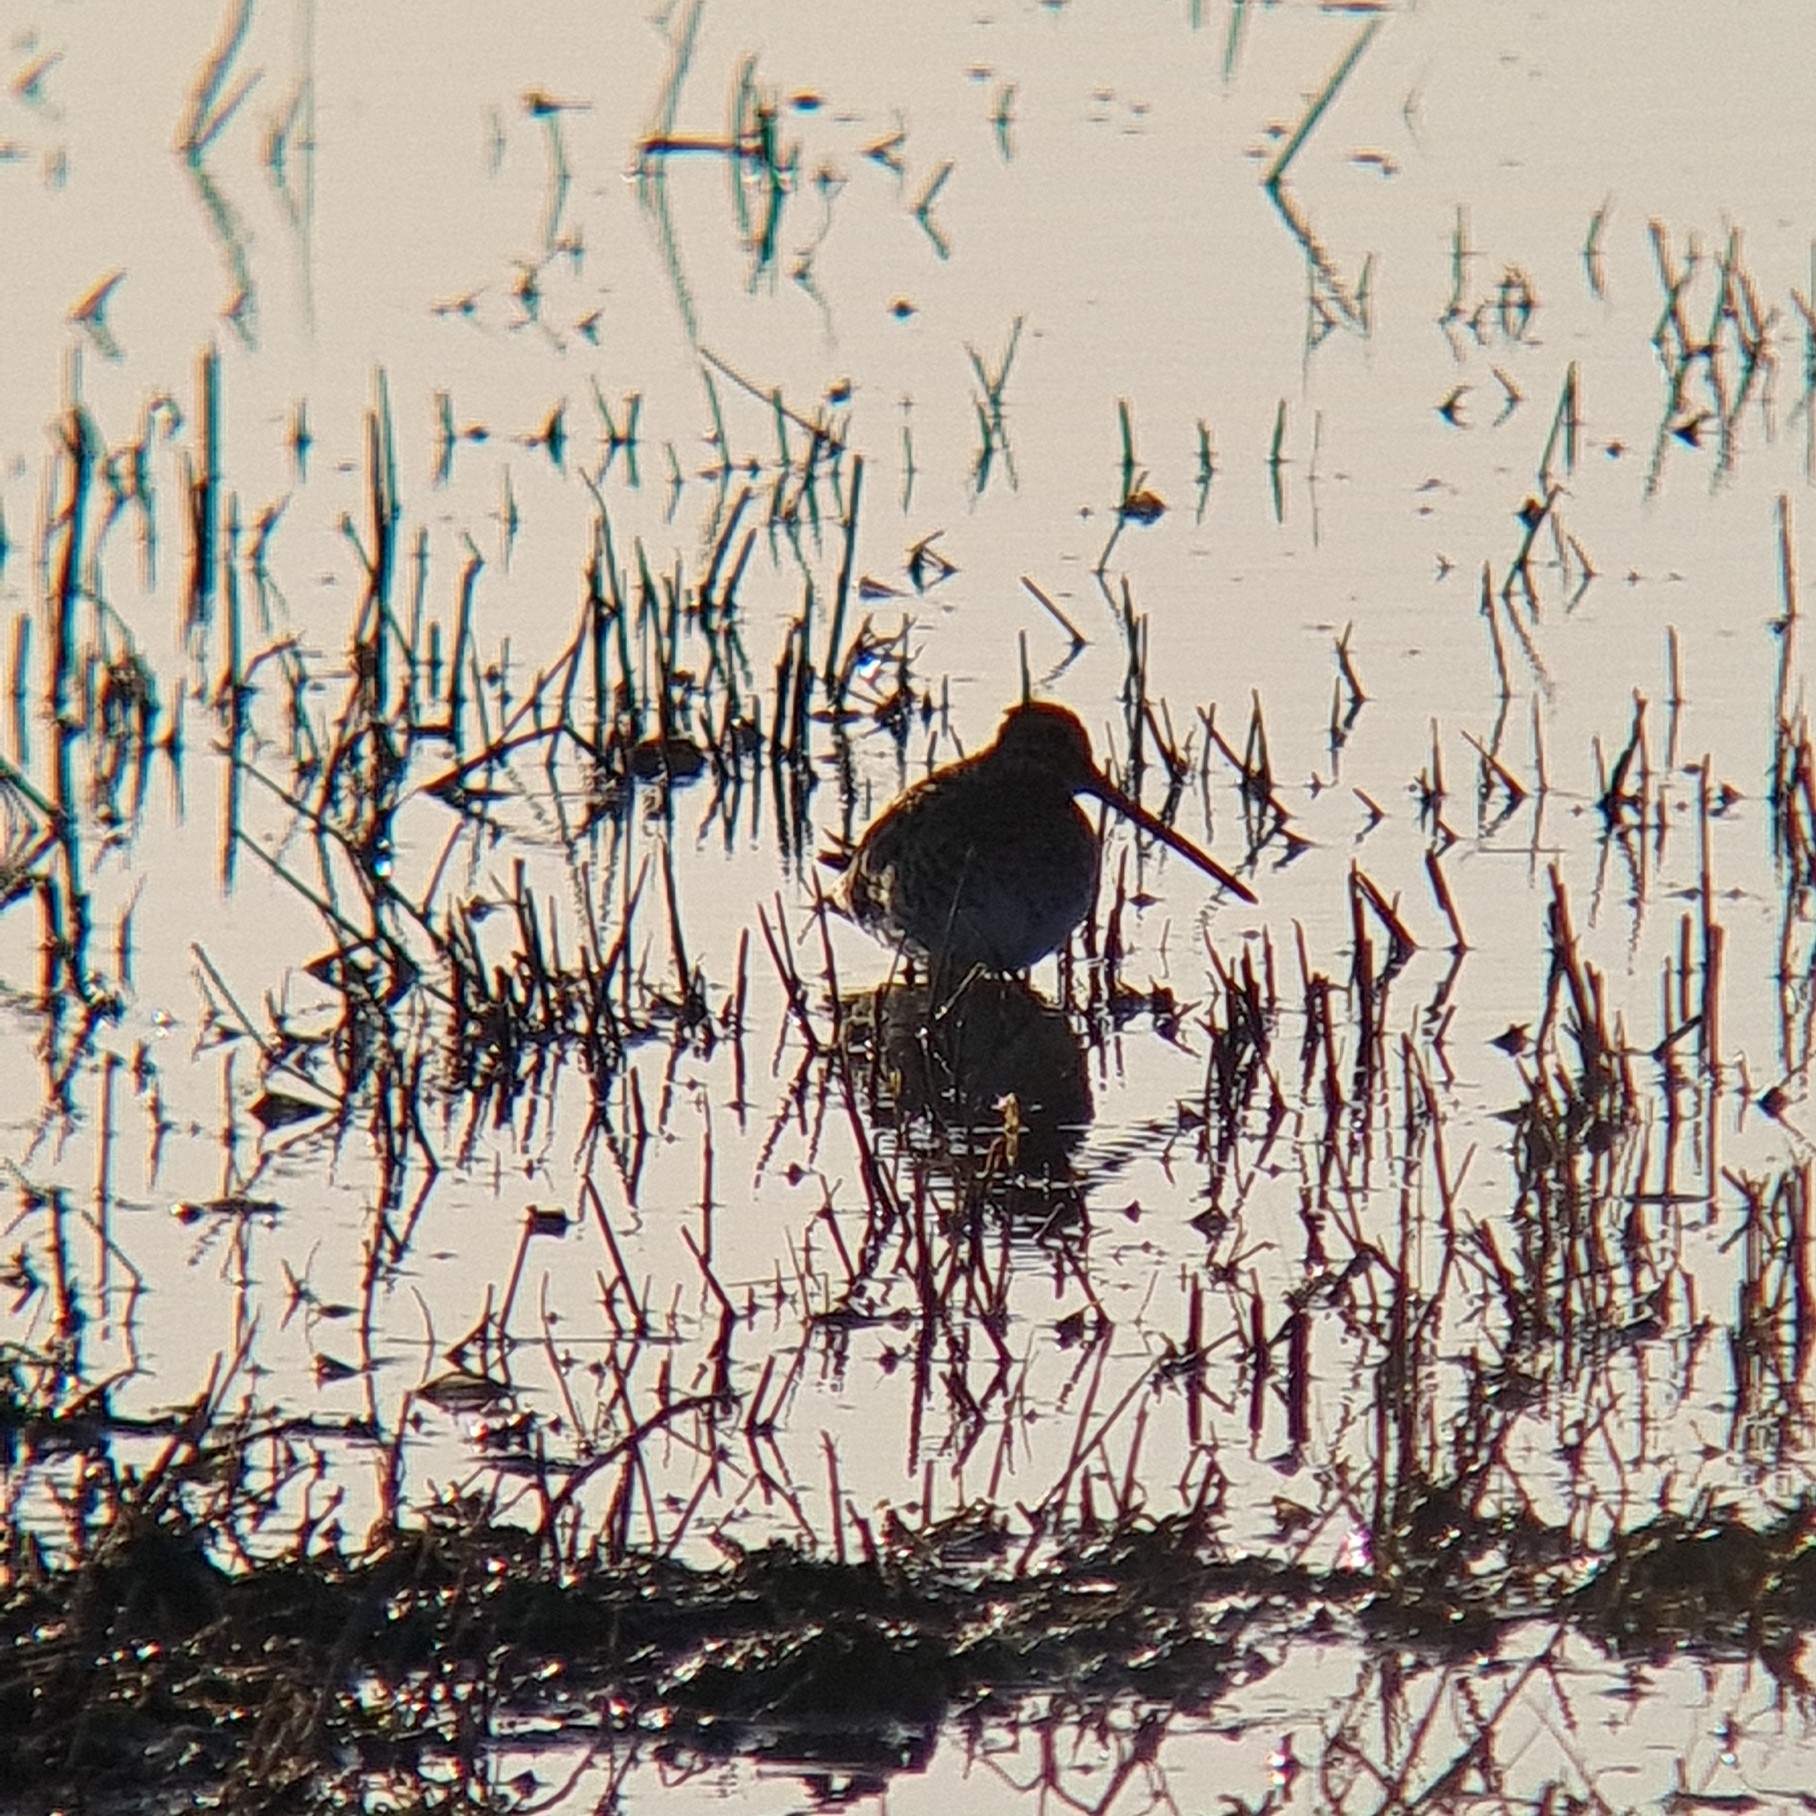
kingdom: Animalia
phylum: Chordata
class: Aves
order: Charadriiformes
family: Scolopacidae
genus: Gallinago
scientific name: Gallinago gallinago
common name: Common snipe
